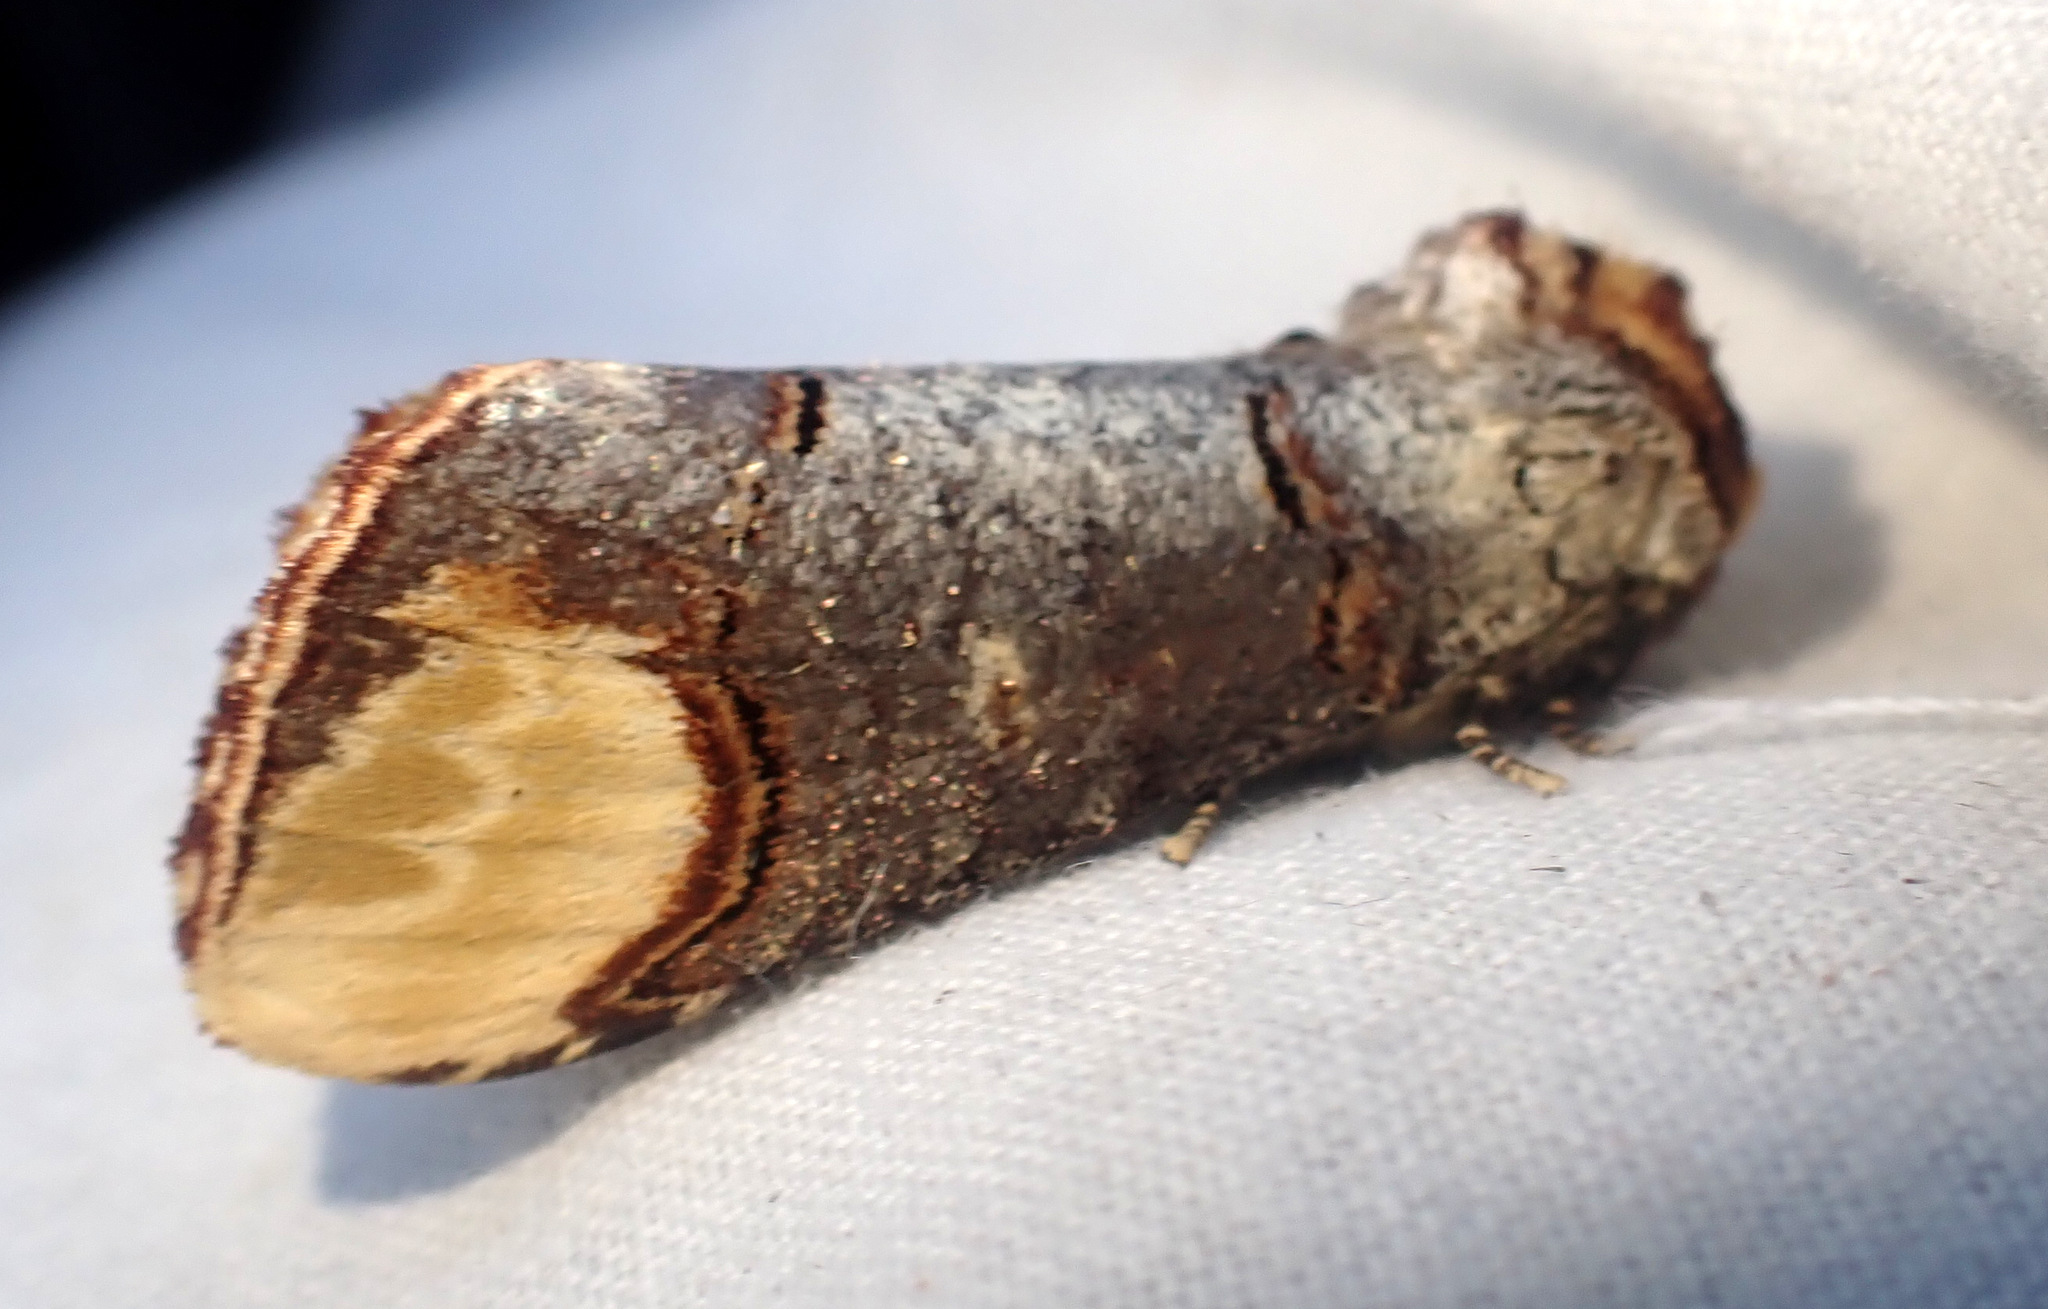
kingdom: Animalia
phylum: Arthropoda
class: Insecta
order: Lepidoptera
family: Notodontidae
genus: Phalera
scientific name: Phalera bucephala
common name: Buff-tip
